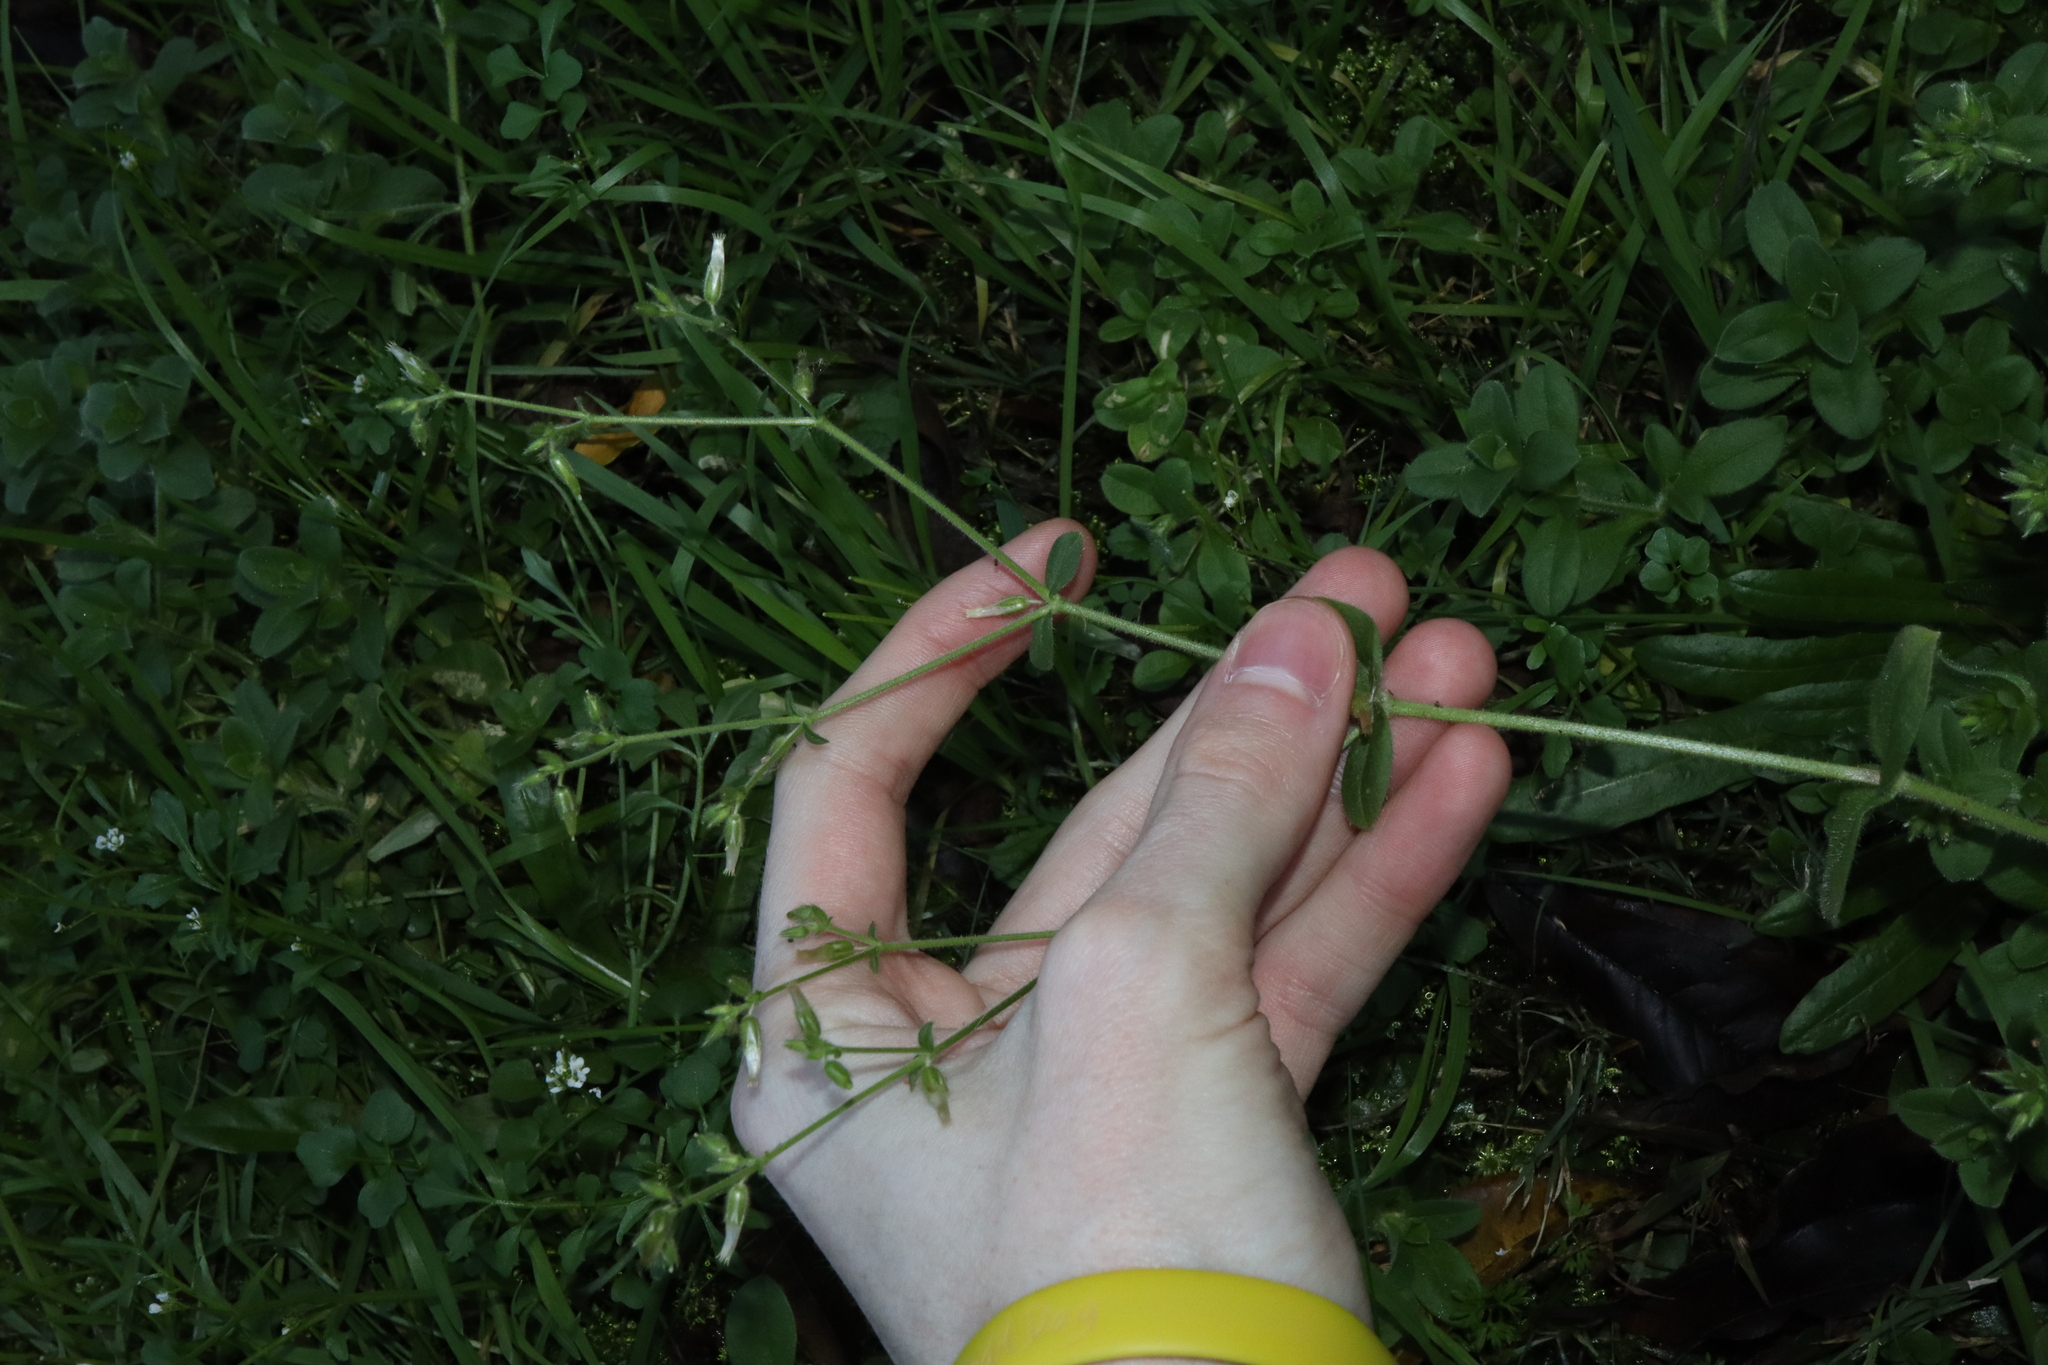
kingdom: Plantae
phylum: Tracheophyta
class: Magnoliopsida
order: Caryophyllales
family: Caryophyllaceae
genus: Cerastium
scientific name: Cerastium glomeratum
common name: Sticky chickweed
